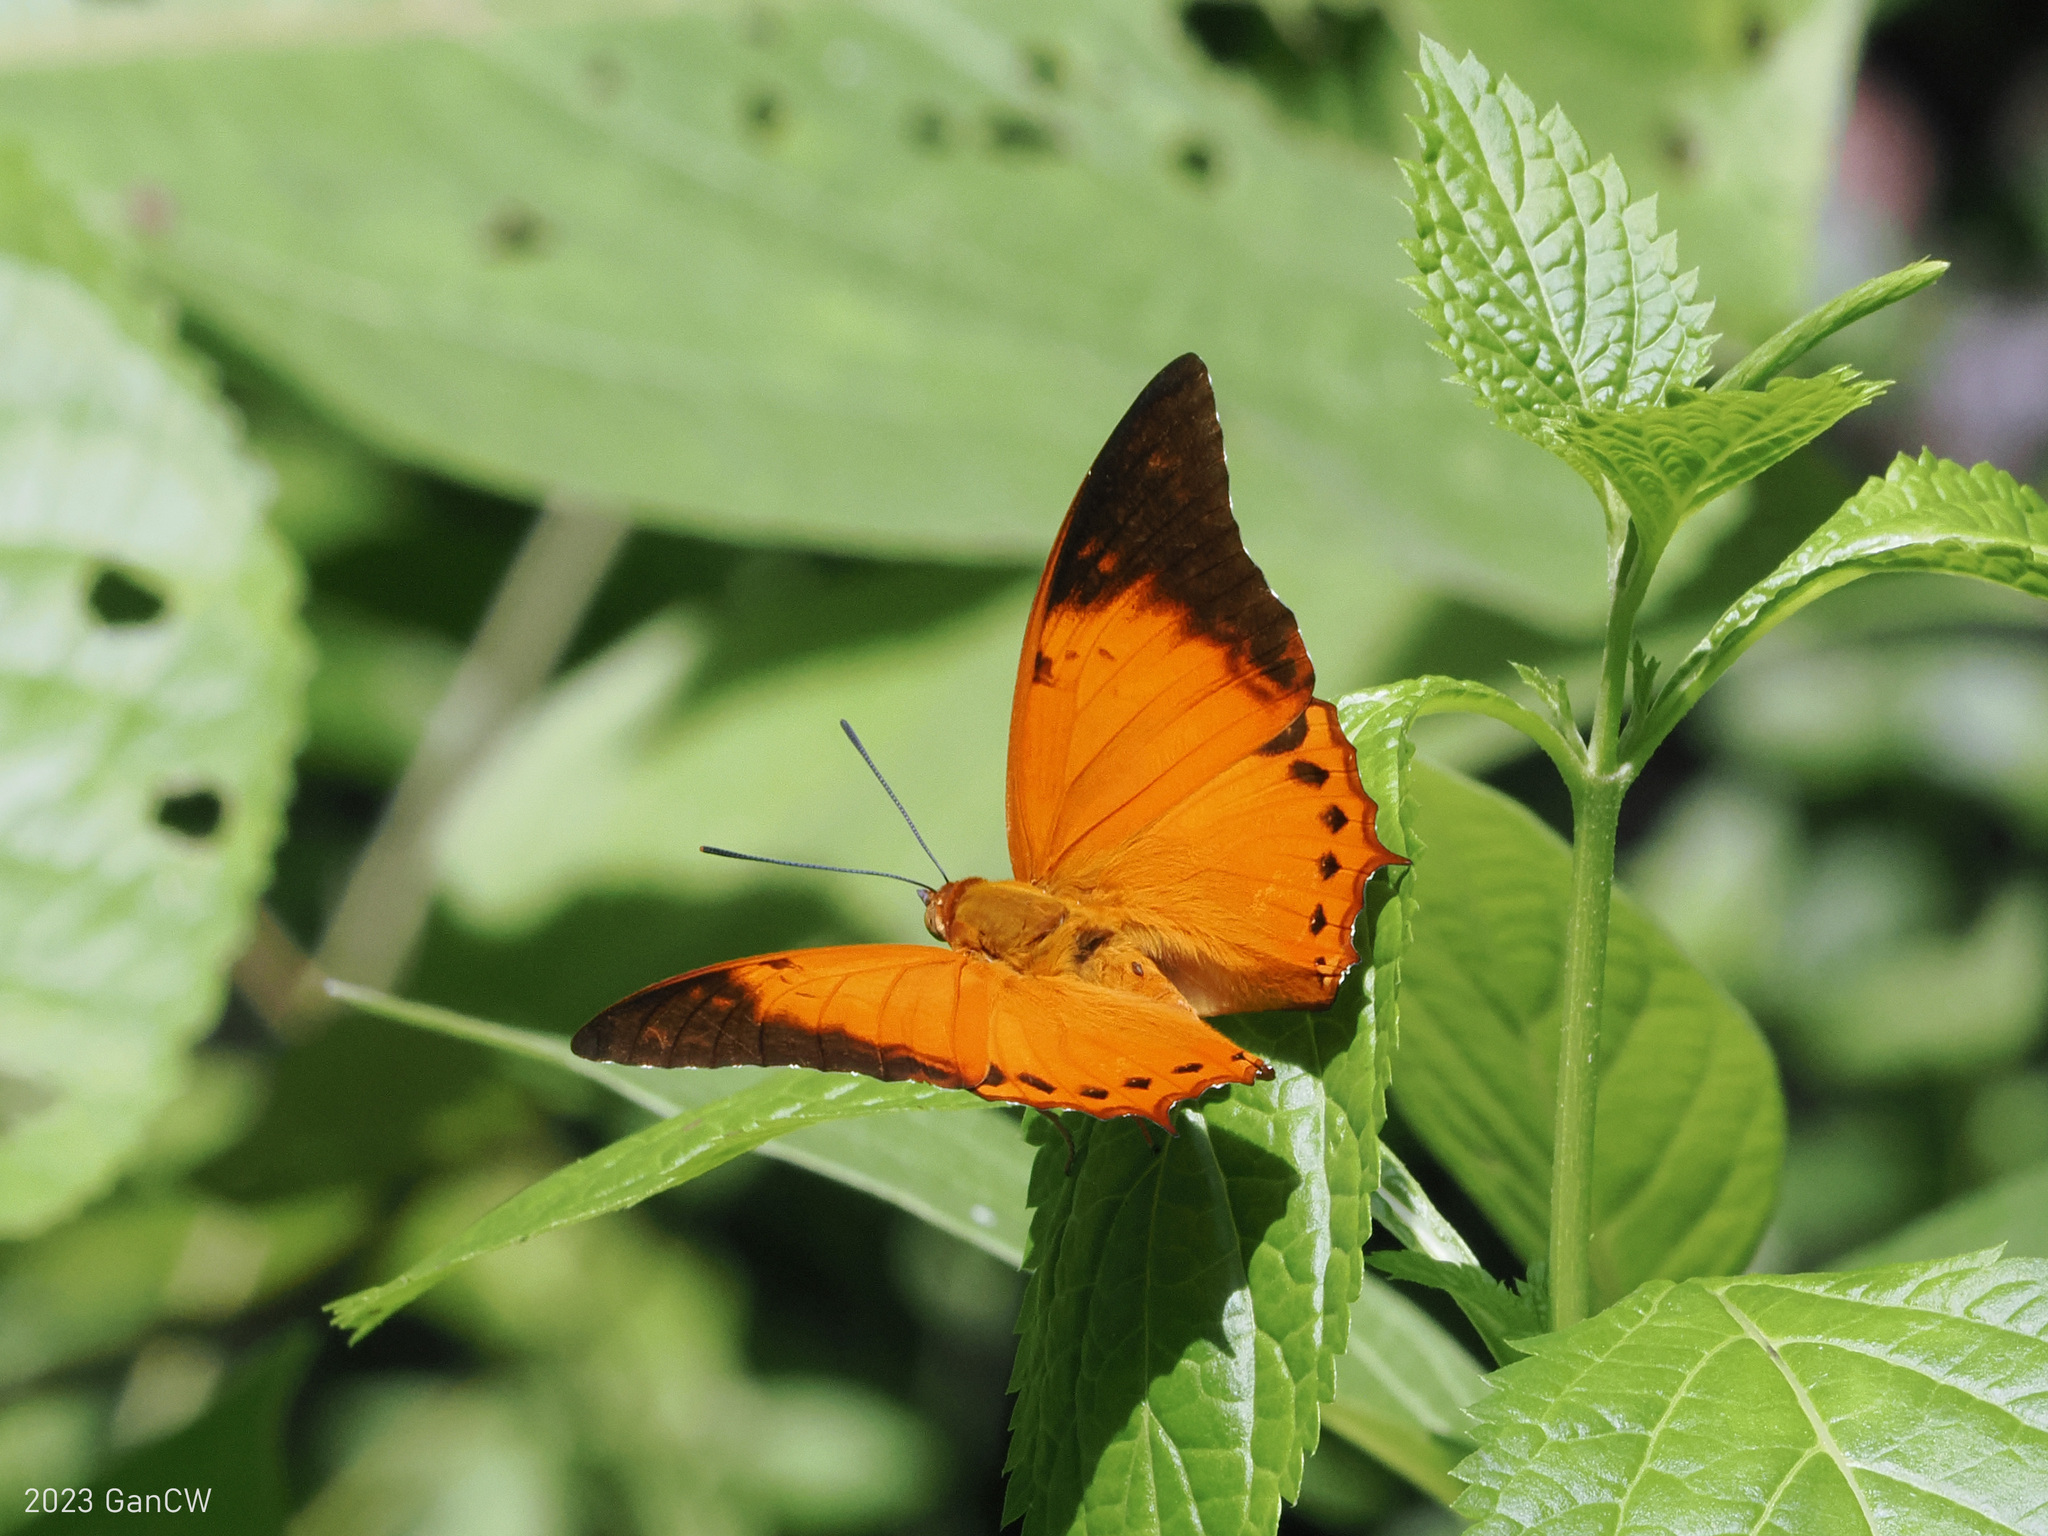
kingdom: Animalia
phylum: Arthropoda
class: Insecta
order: Lepidoptera
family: Nymphalidae
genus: Charaxes
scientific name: Charaxes affinis
